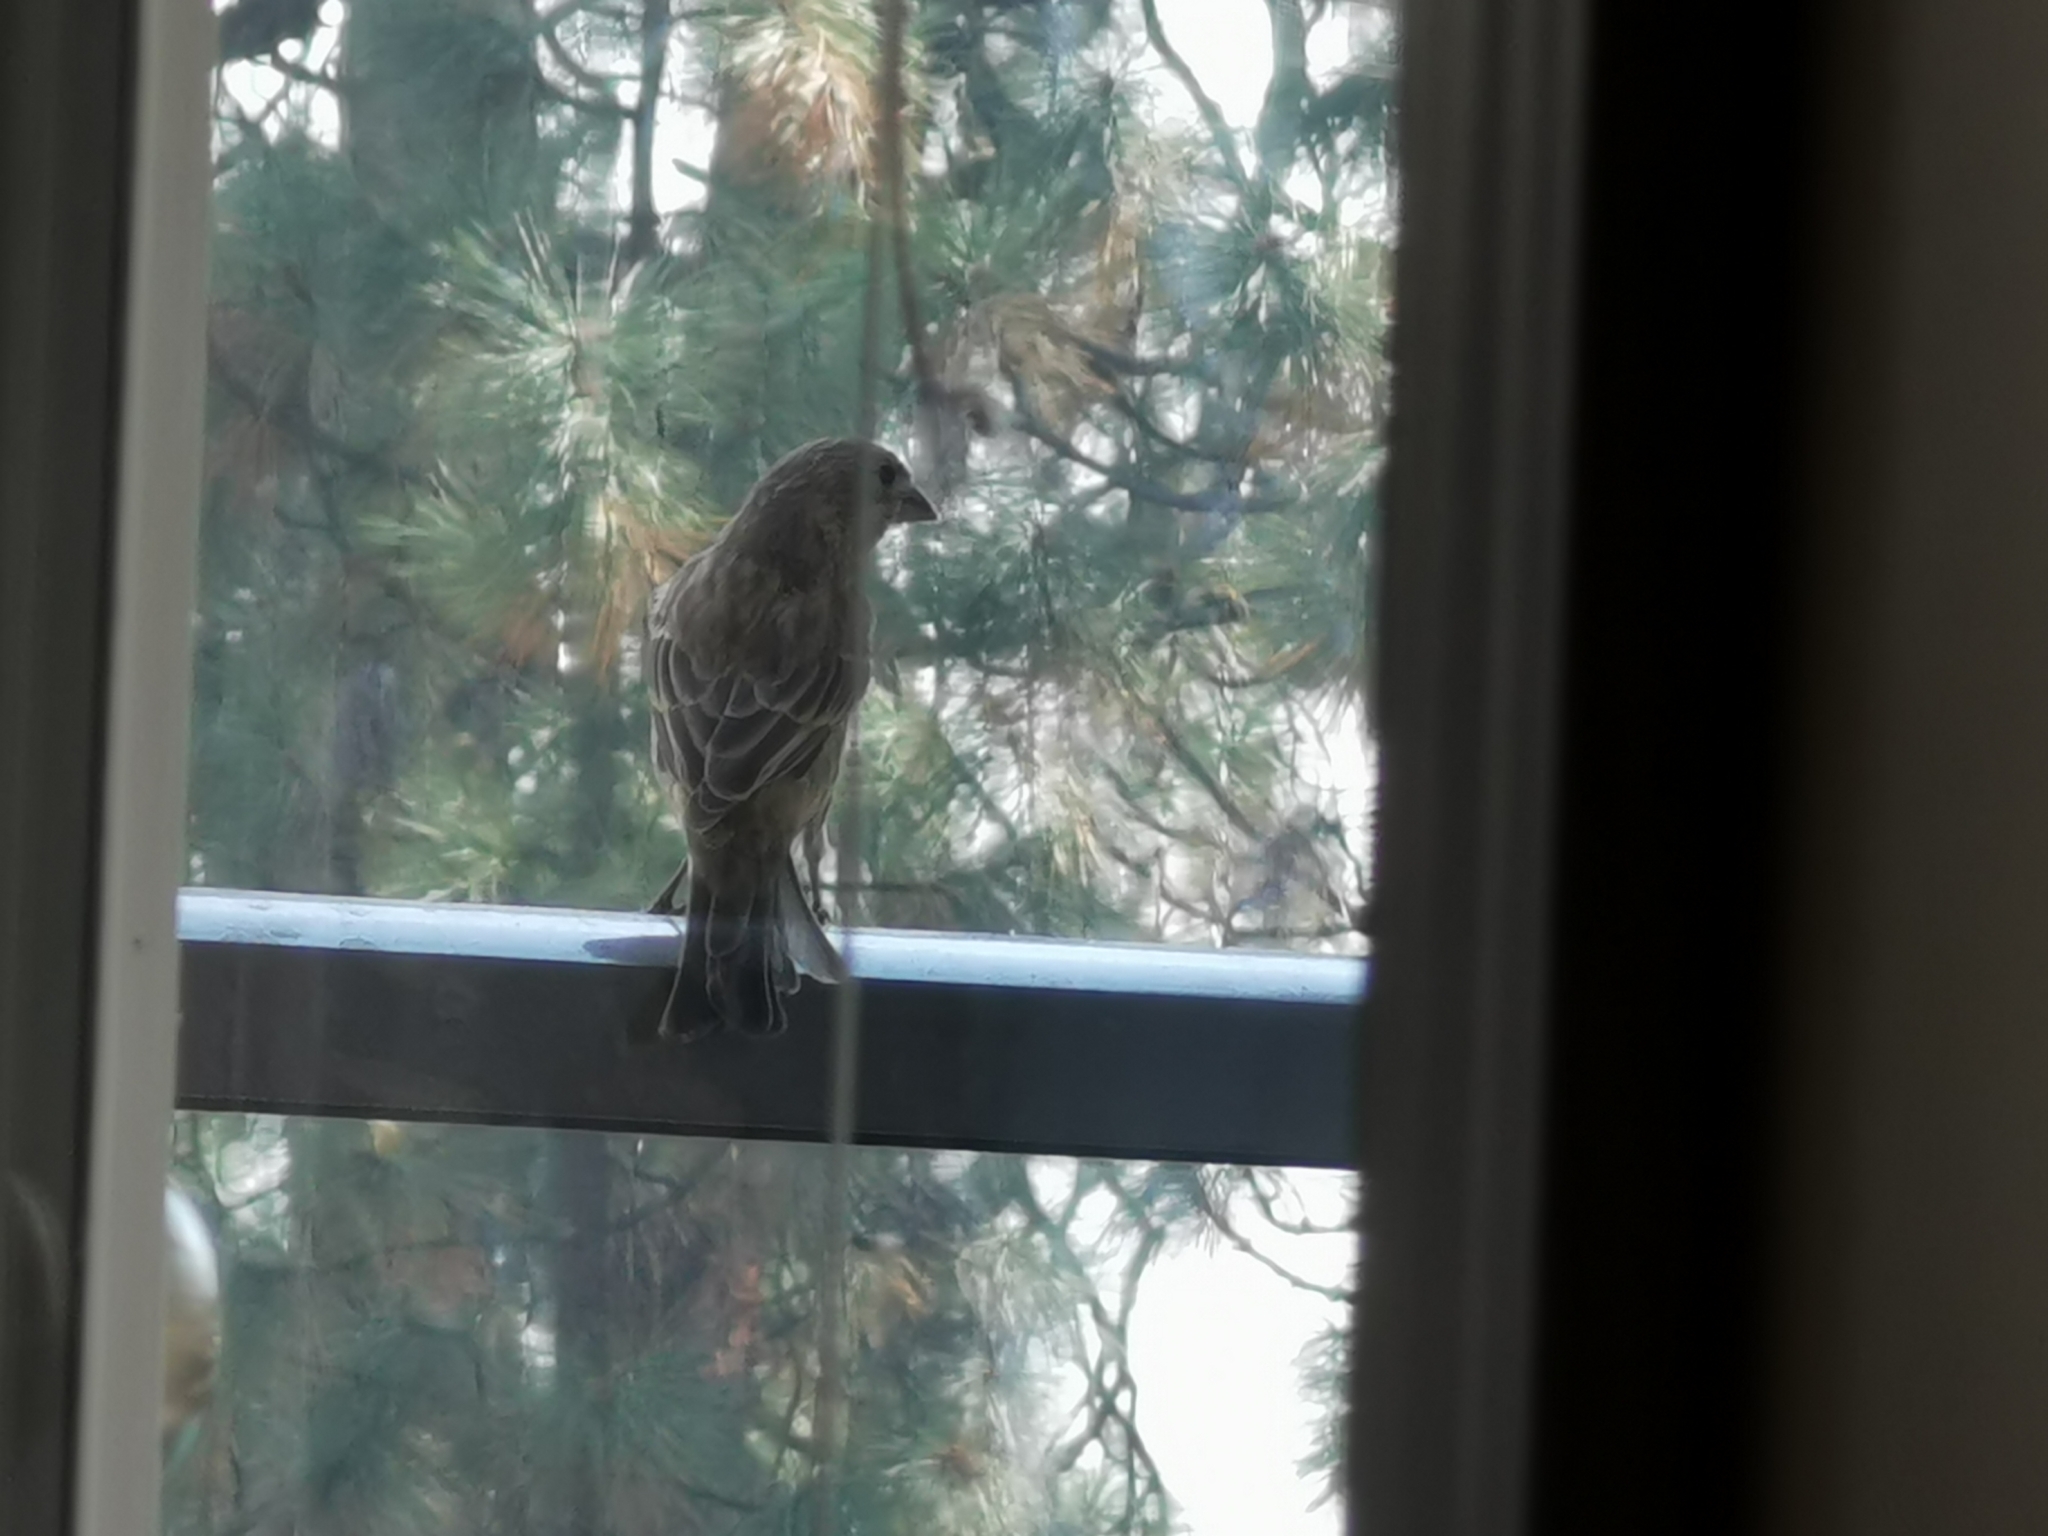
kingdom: Animalia
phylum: Chordata
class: Aves
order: Passeriformes
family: Fringillidae
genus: Haemorhous
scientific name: Haemorhous mexicanus
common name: House finch
